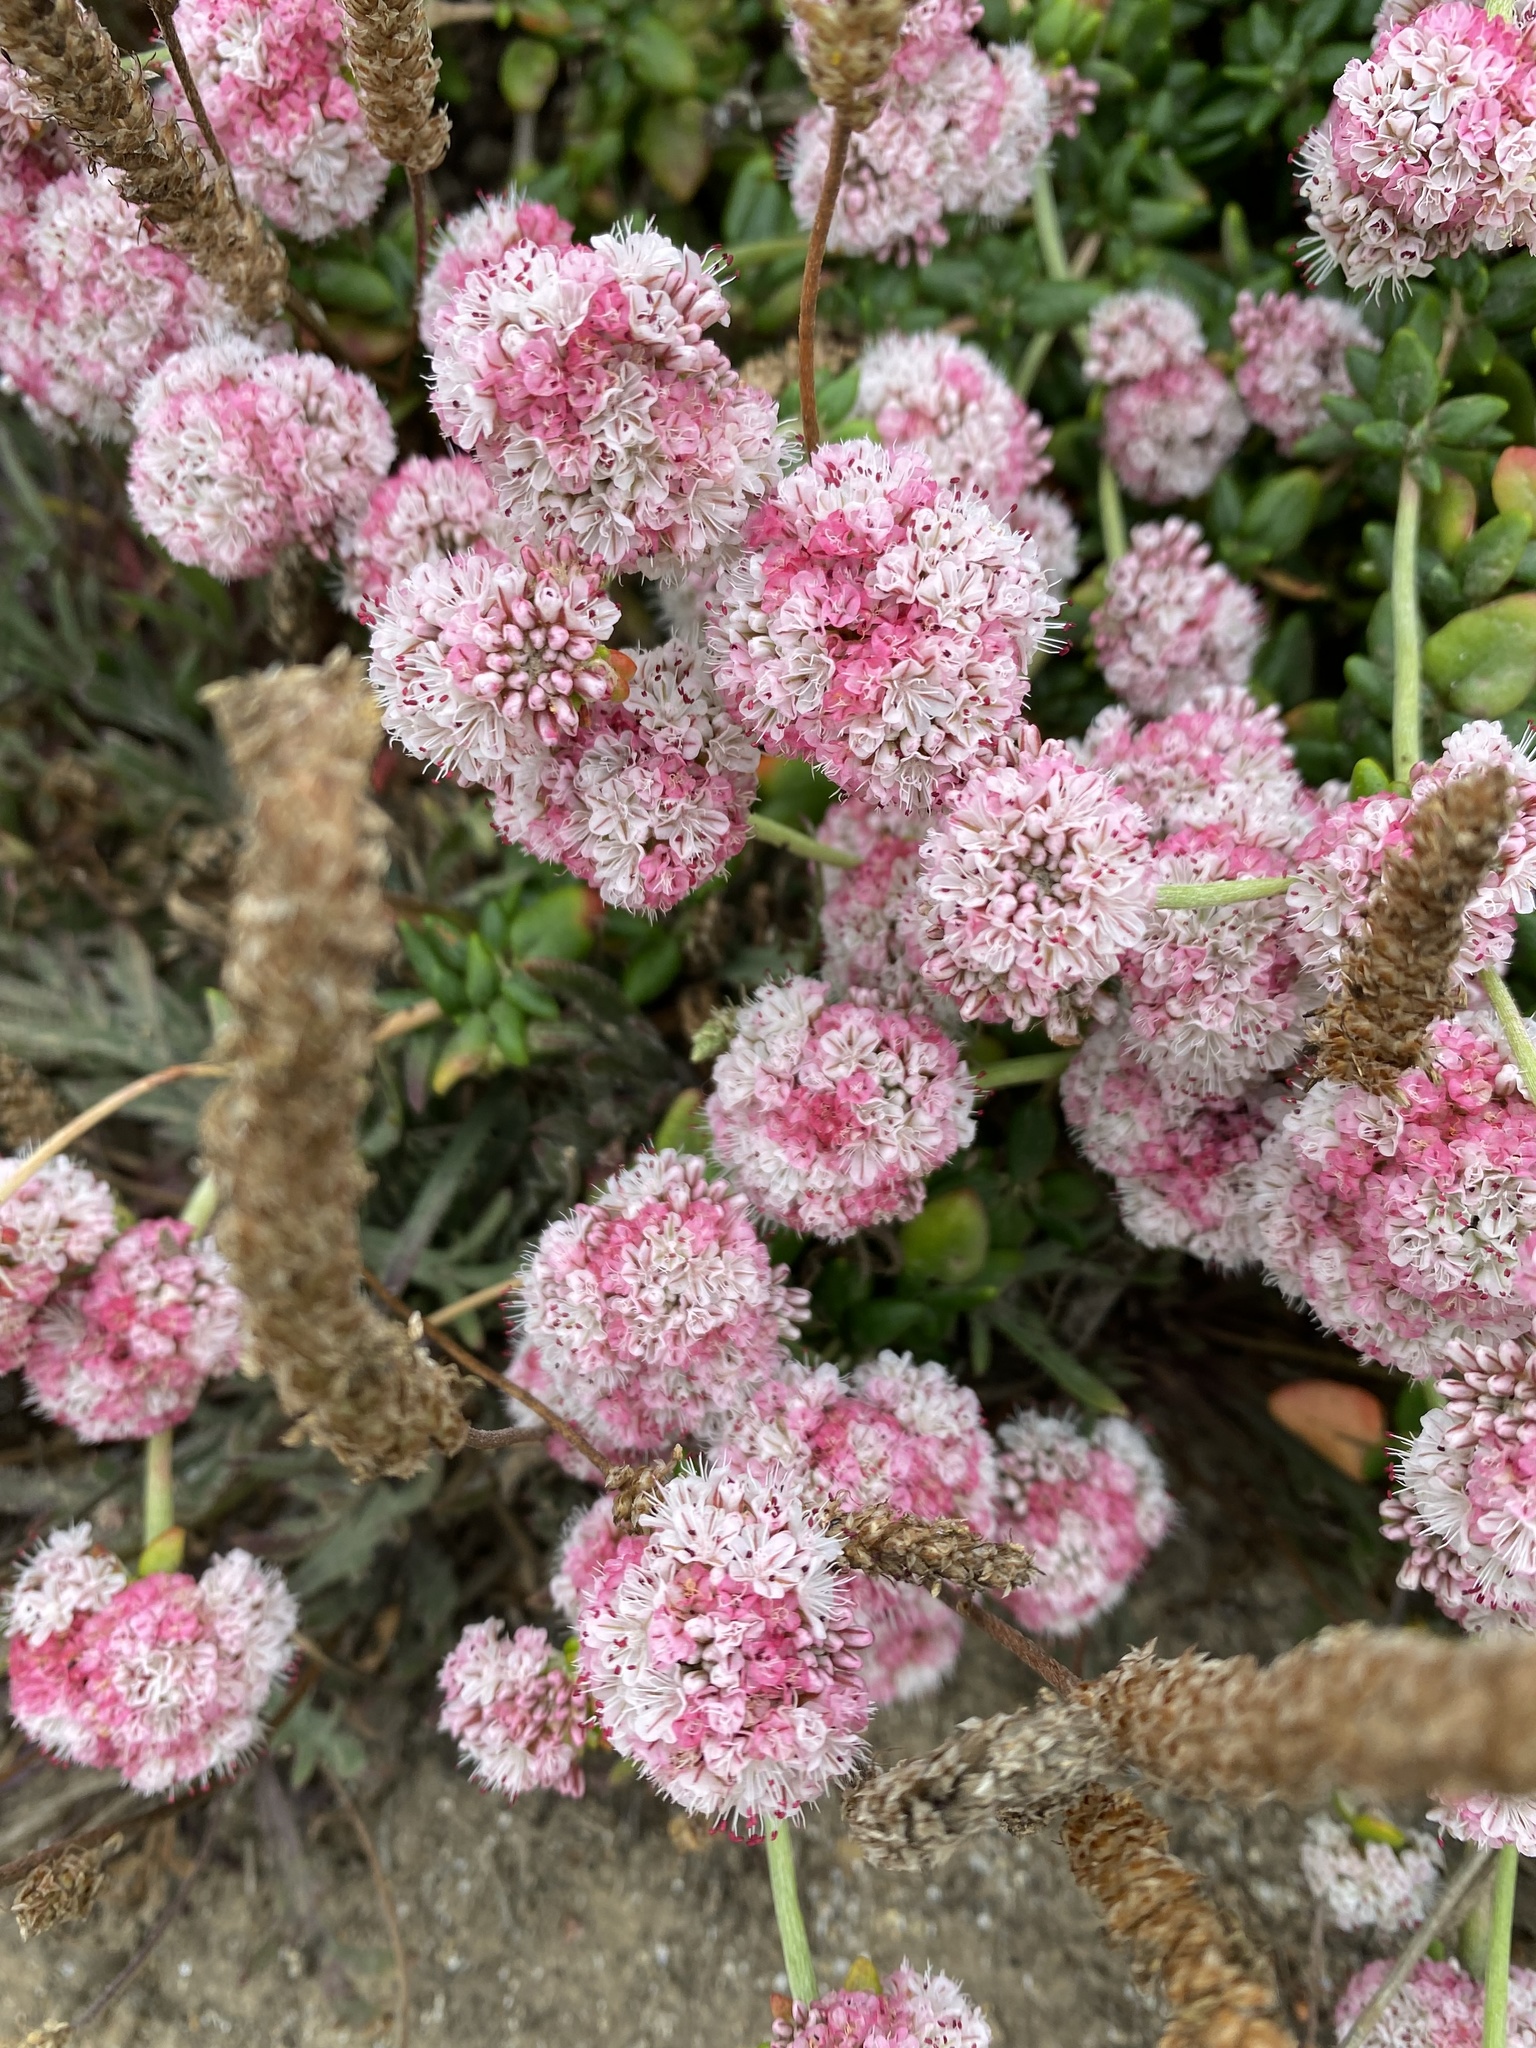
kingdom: Plantae
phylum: Tracheophyta
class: Magnoliopsida
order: Caryophyllales
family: Polygonaceae
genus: Eriogonum
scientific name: Eriogonum parvifolium
